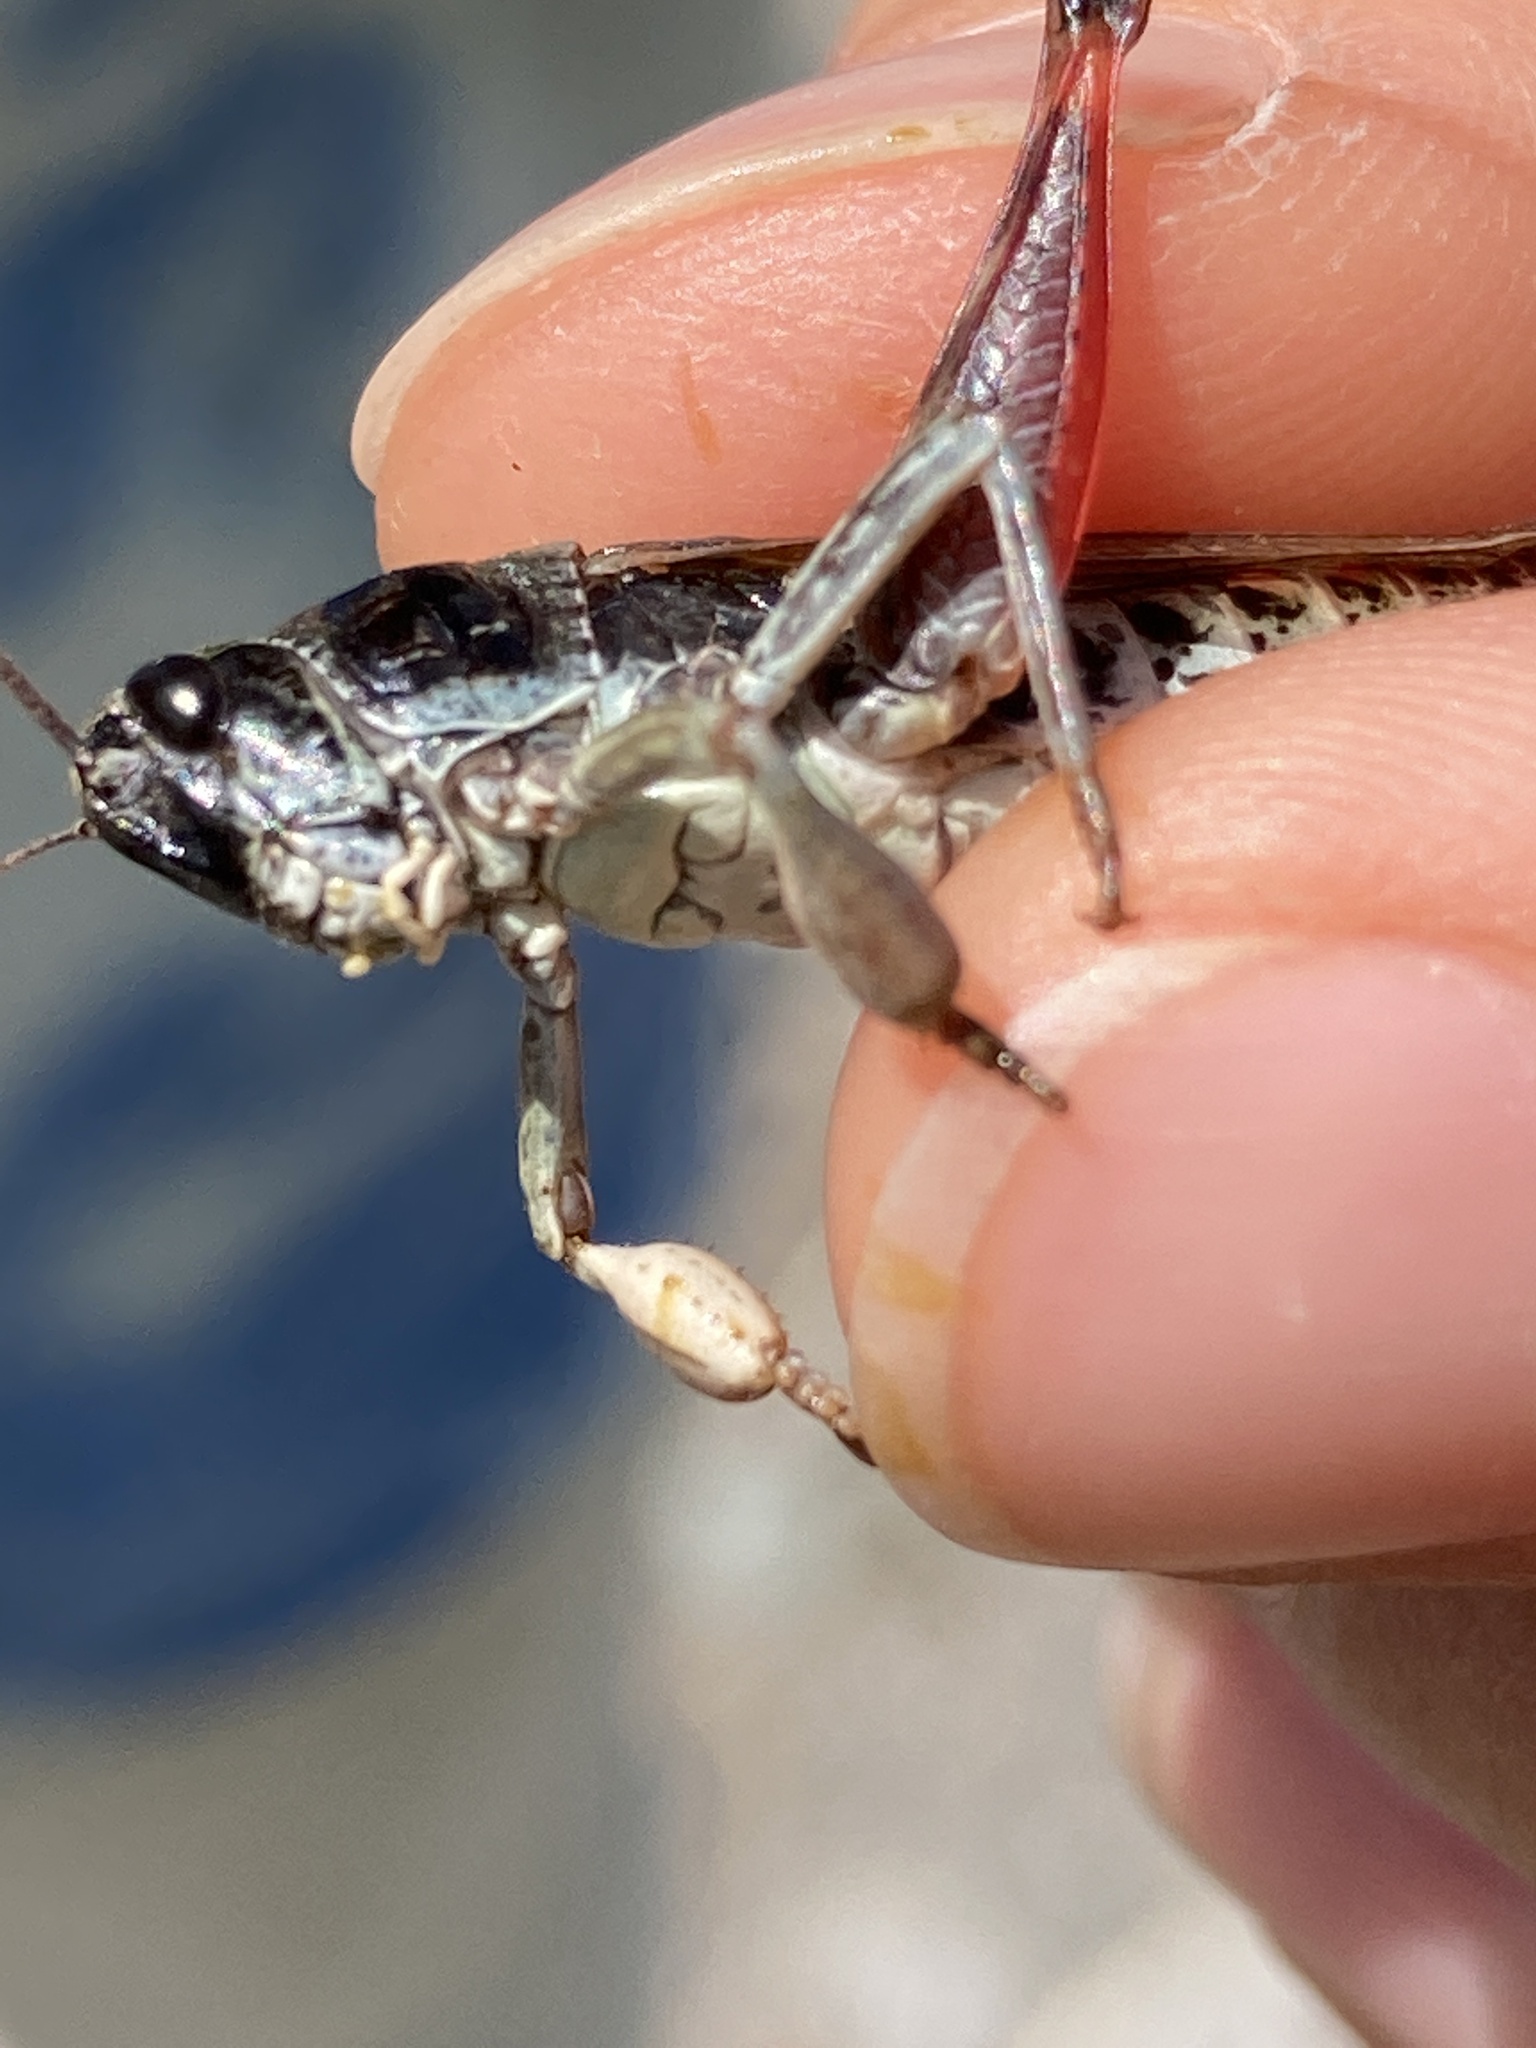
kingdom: Animalia
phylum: Arthropoda
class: Insecta
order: Orthoptera
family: Acrididae
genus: Gomphocerus
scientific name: Gomphocerus sibiricus
